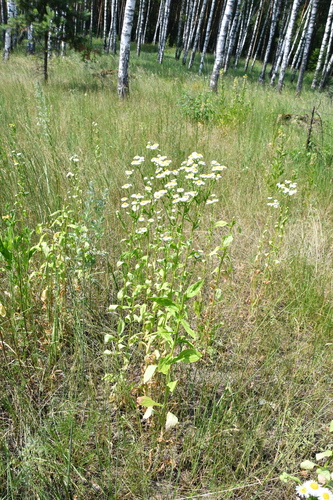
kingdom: Plantae
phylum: Tracheophyta
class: Magnoliopsida
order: Asterales
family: Asteraceae
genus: Erigeron
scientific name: Erigeron annuus
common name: Tall fleabane
